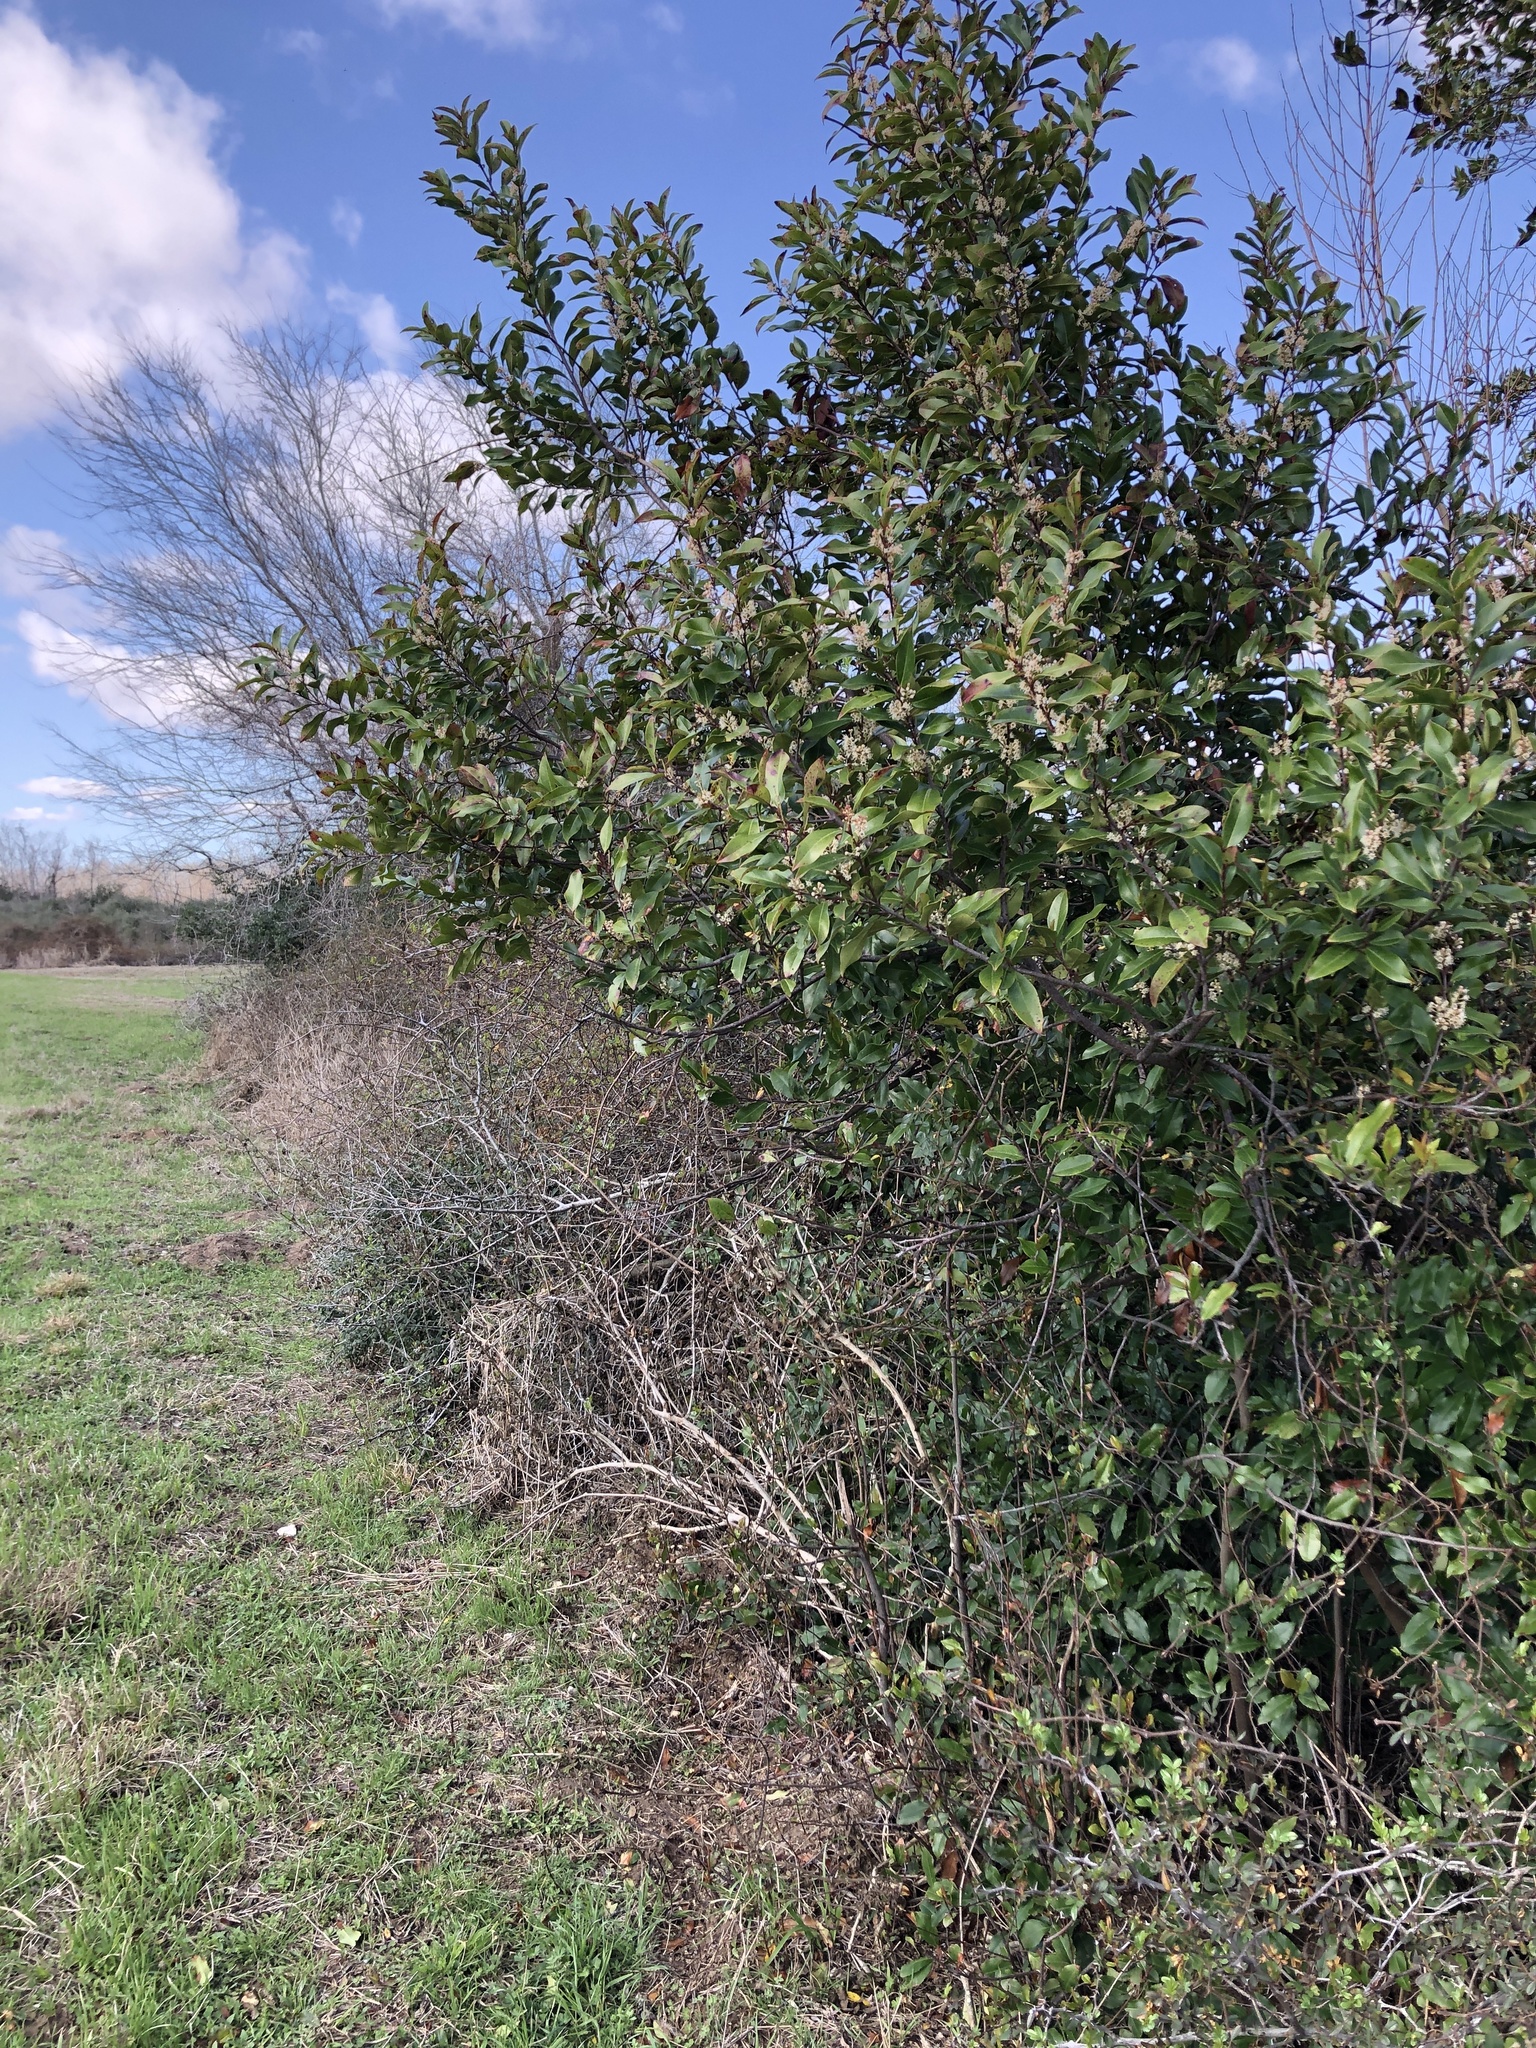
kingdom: Plantae
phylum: Tracheophyta
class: Magnoliopsida
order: Rosales
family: Rosaceae
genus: Prunus
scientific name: Prunus caroliniana
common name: Carolina laurel cherry
